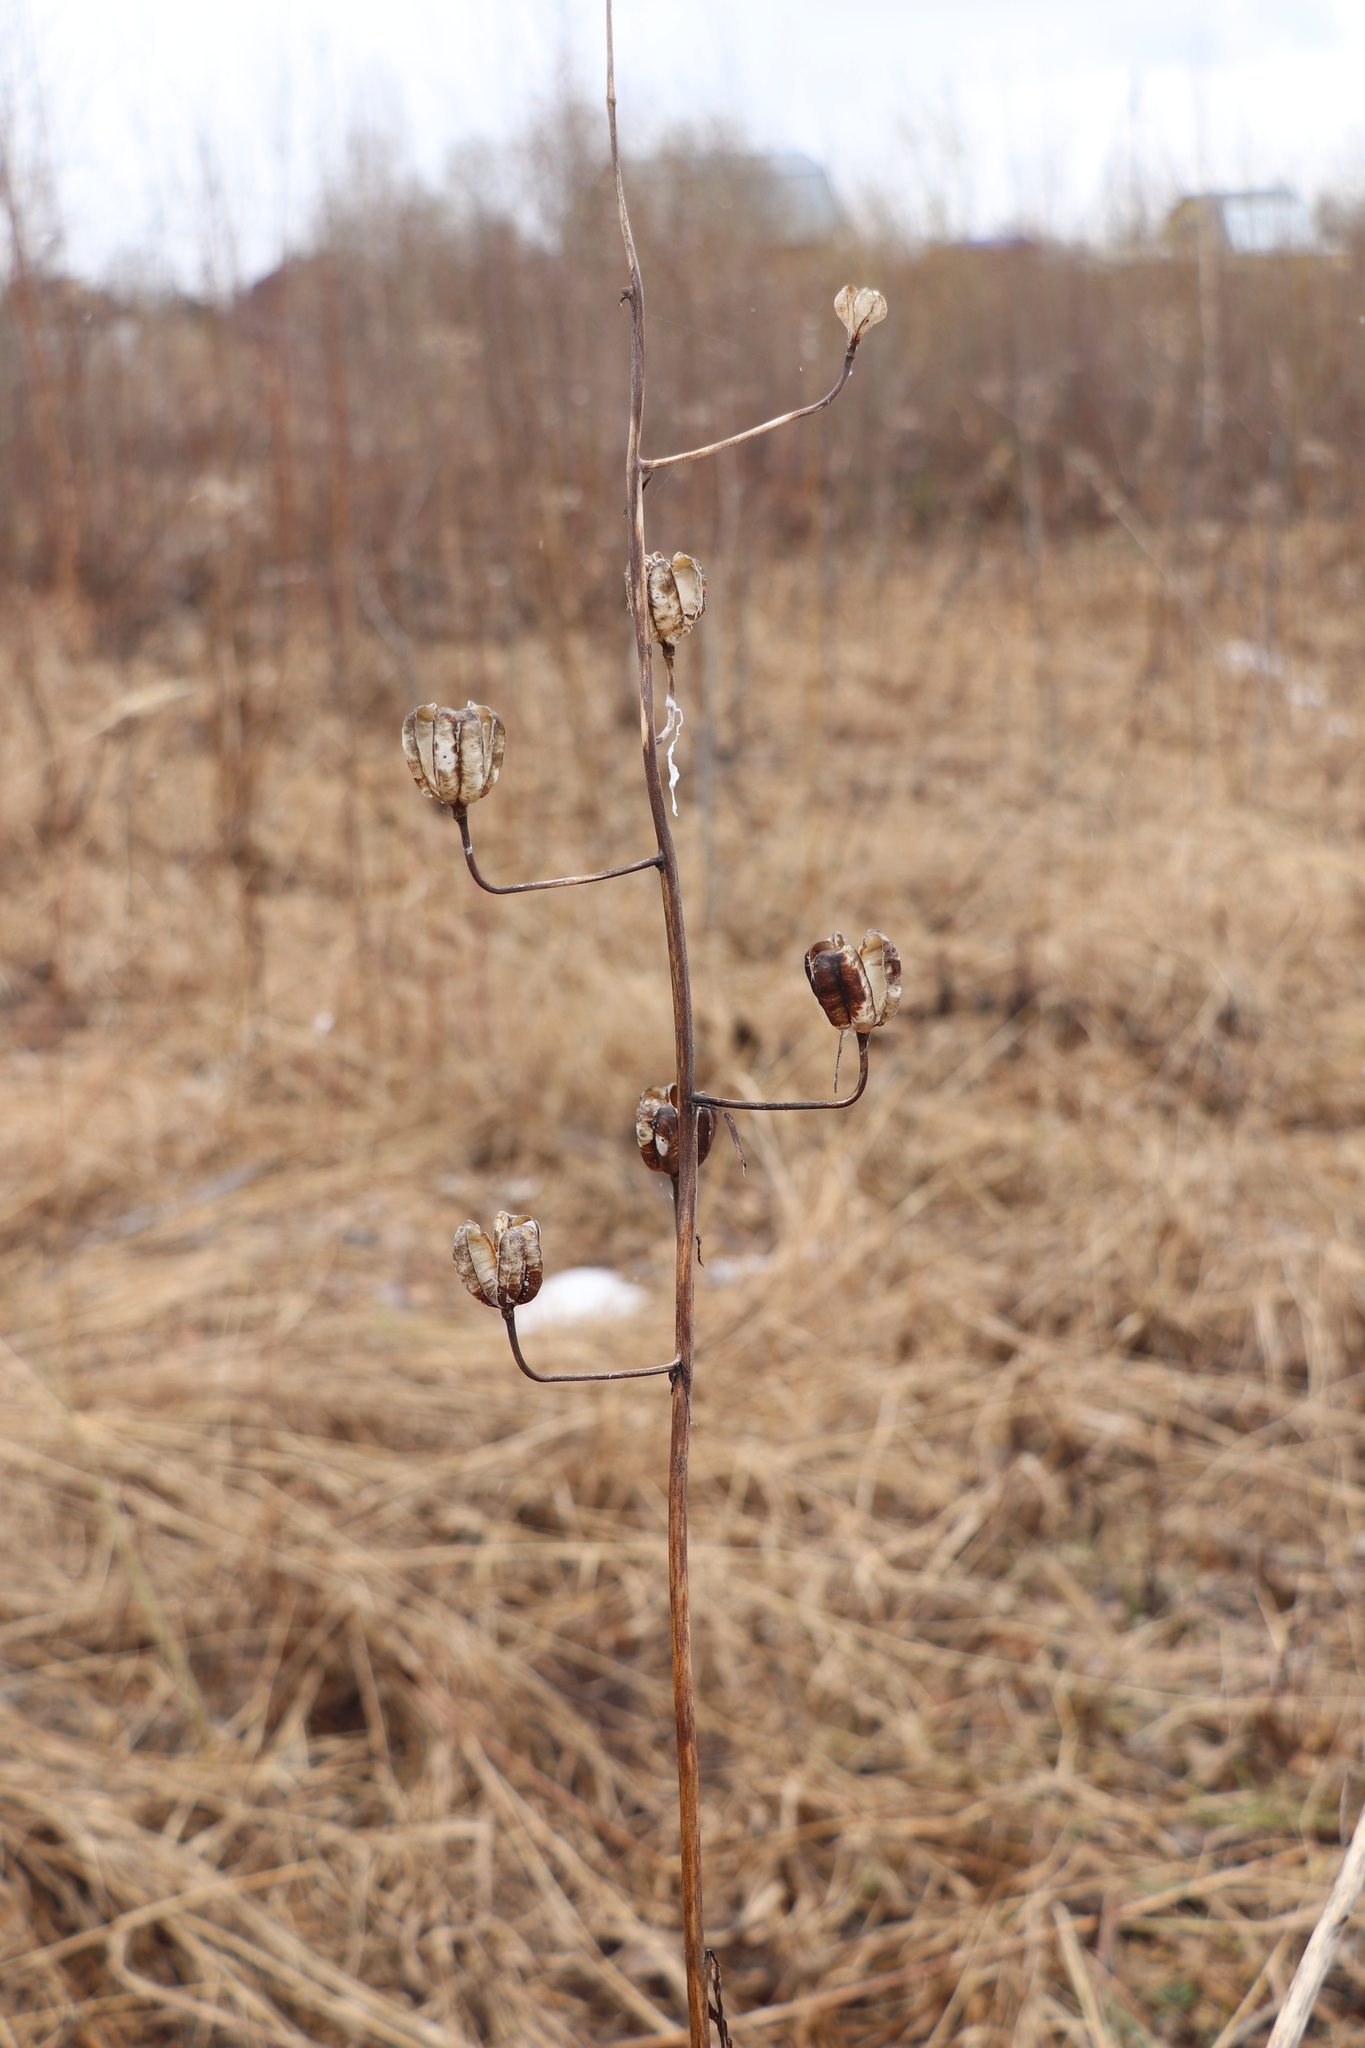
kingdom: Plantae
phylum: Tracheophyta
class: Liliopsida
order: Liliales
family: Liliaceae
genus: Lilium
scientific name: Lilium martagon
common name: Martagon lily
